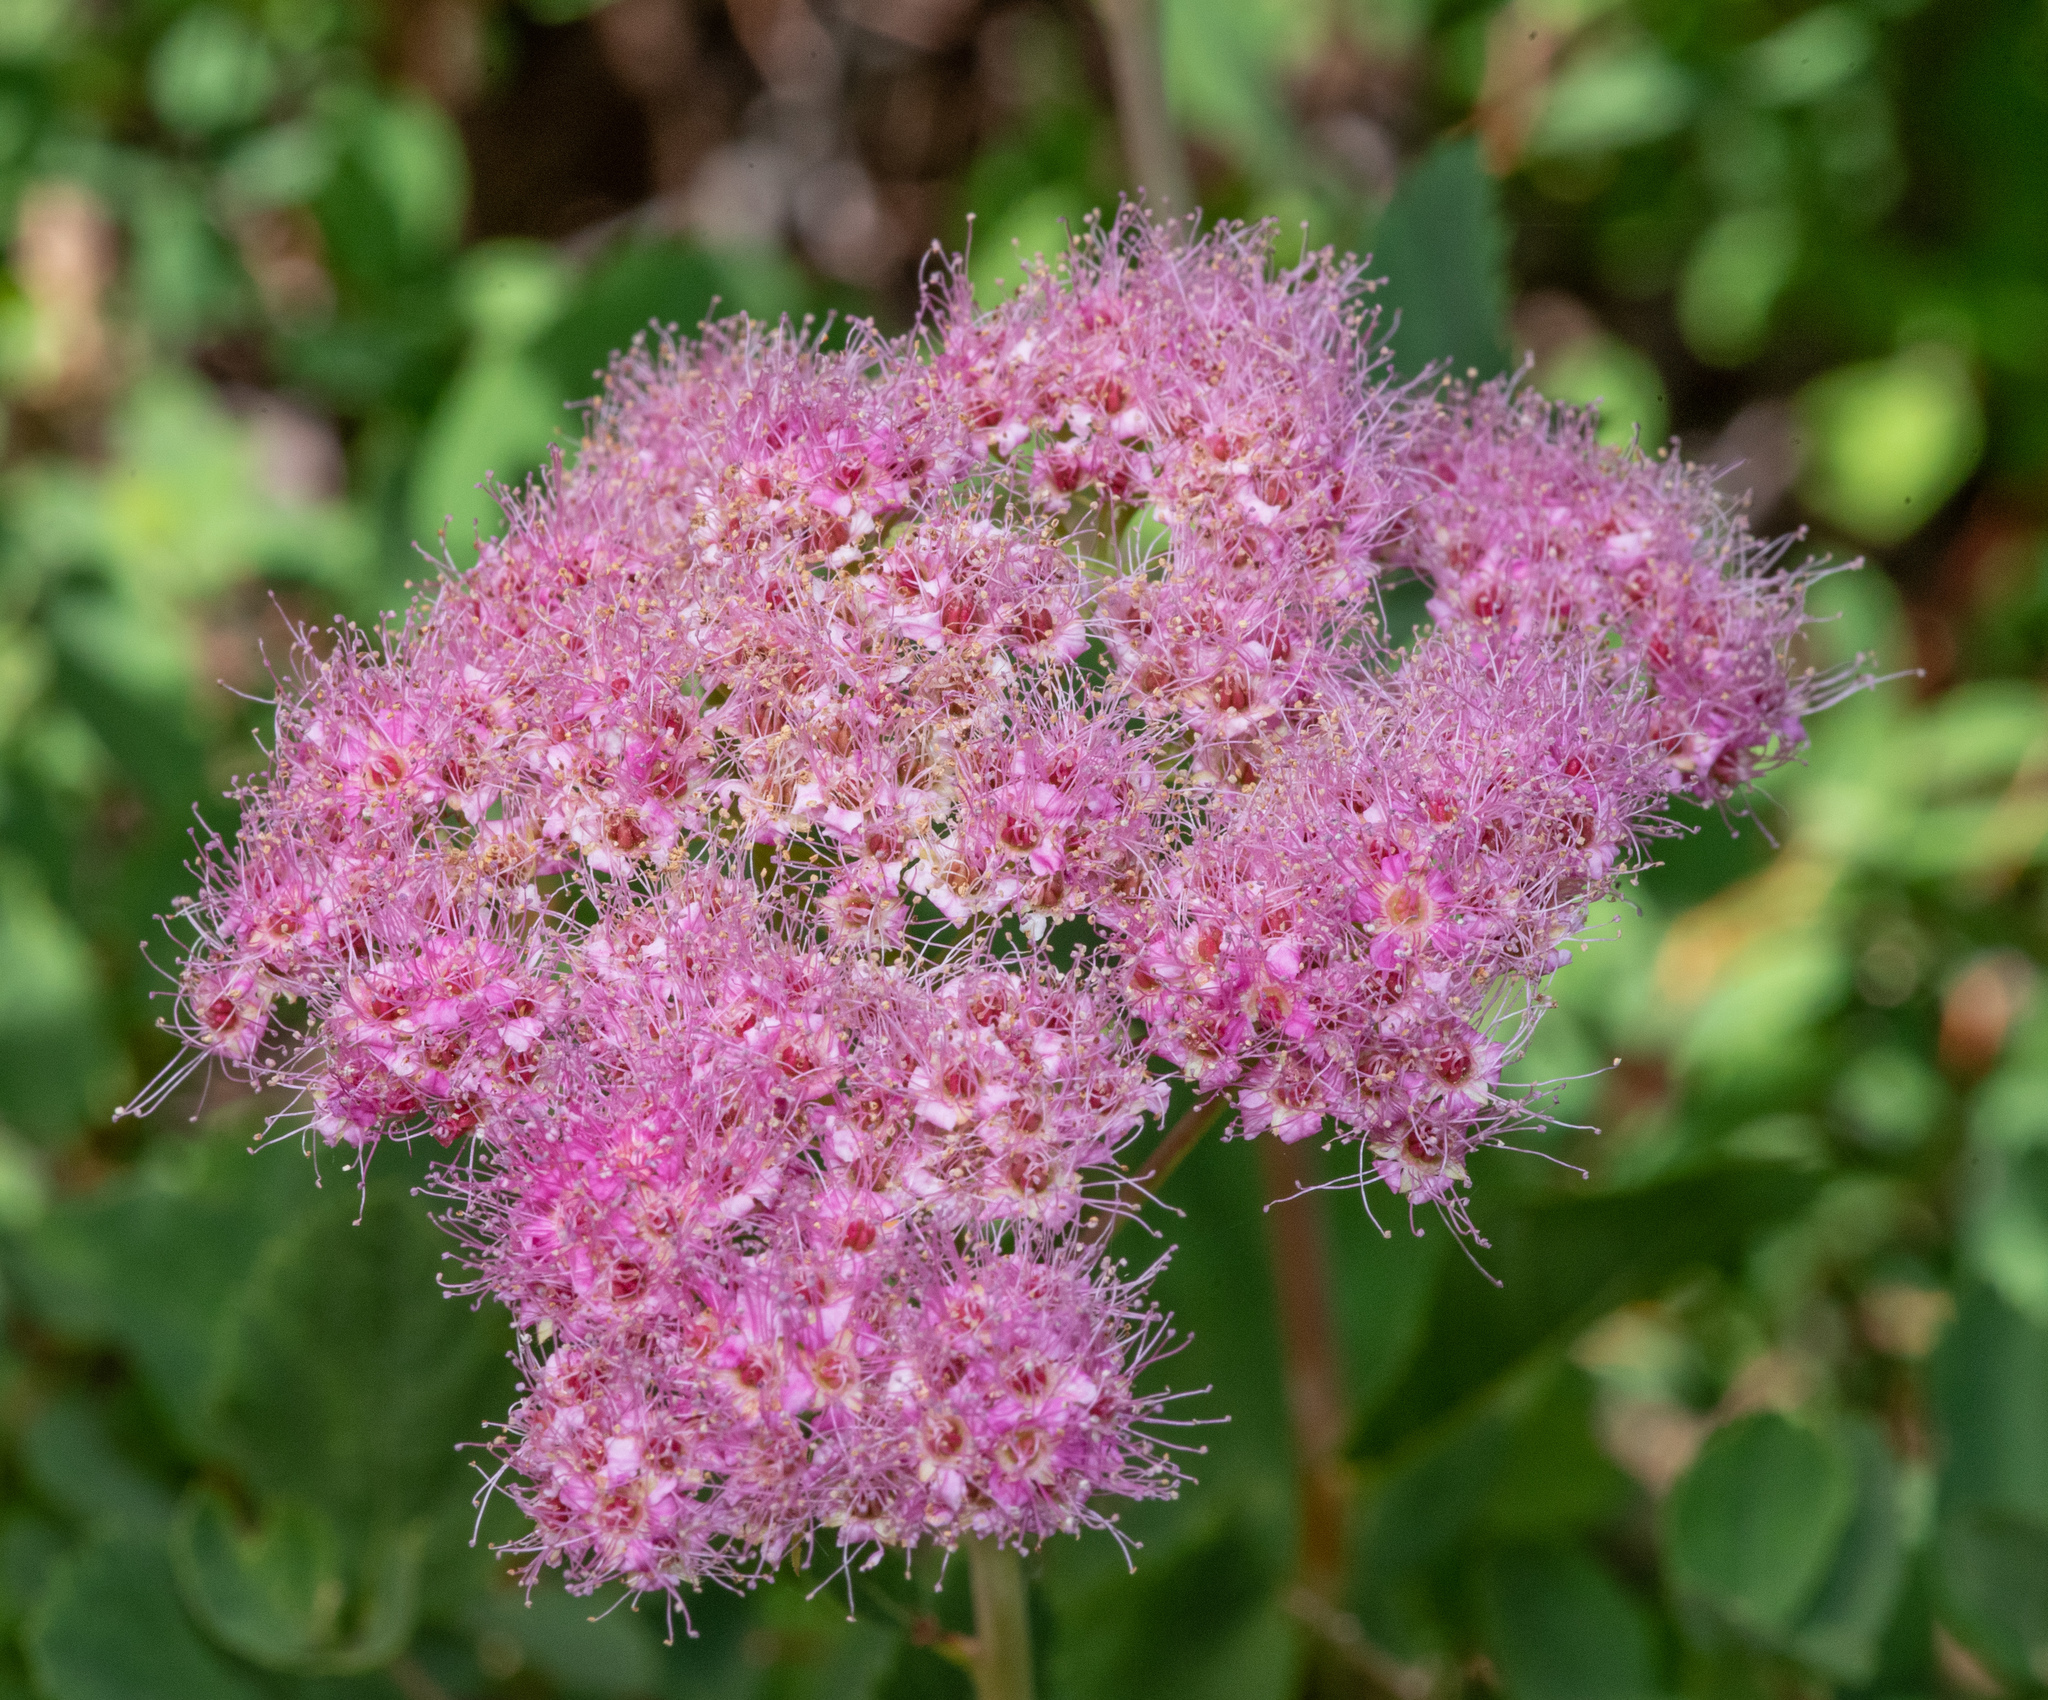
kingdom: Plantae
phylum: Tracheophyta
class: Magnoliopsida
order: Rosales
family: Rosaceae
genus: Spiraea
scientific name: Spiraea splendens
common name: Subalpine meadowsweet
